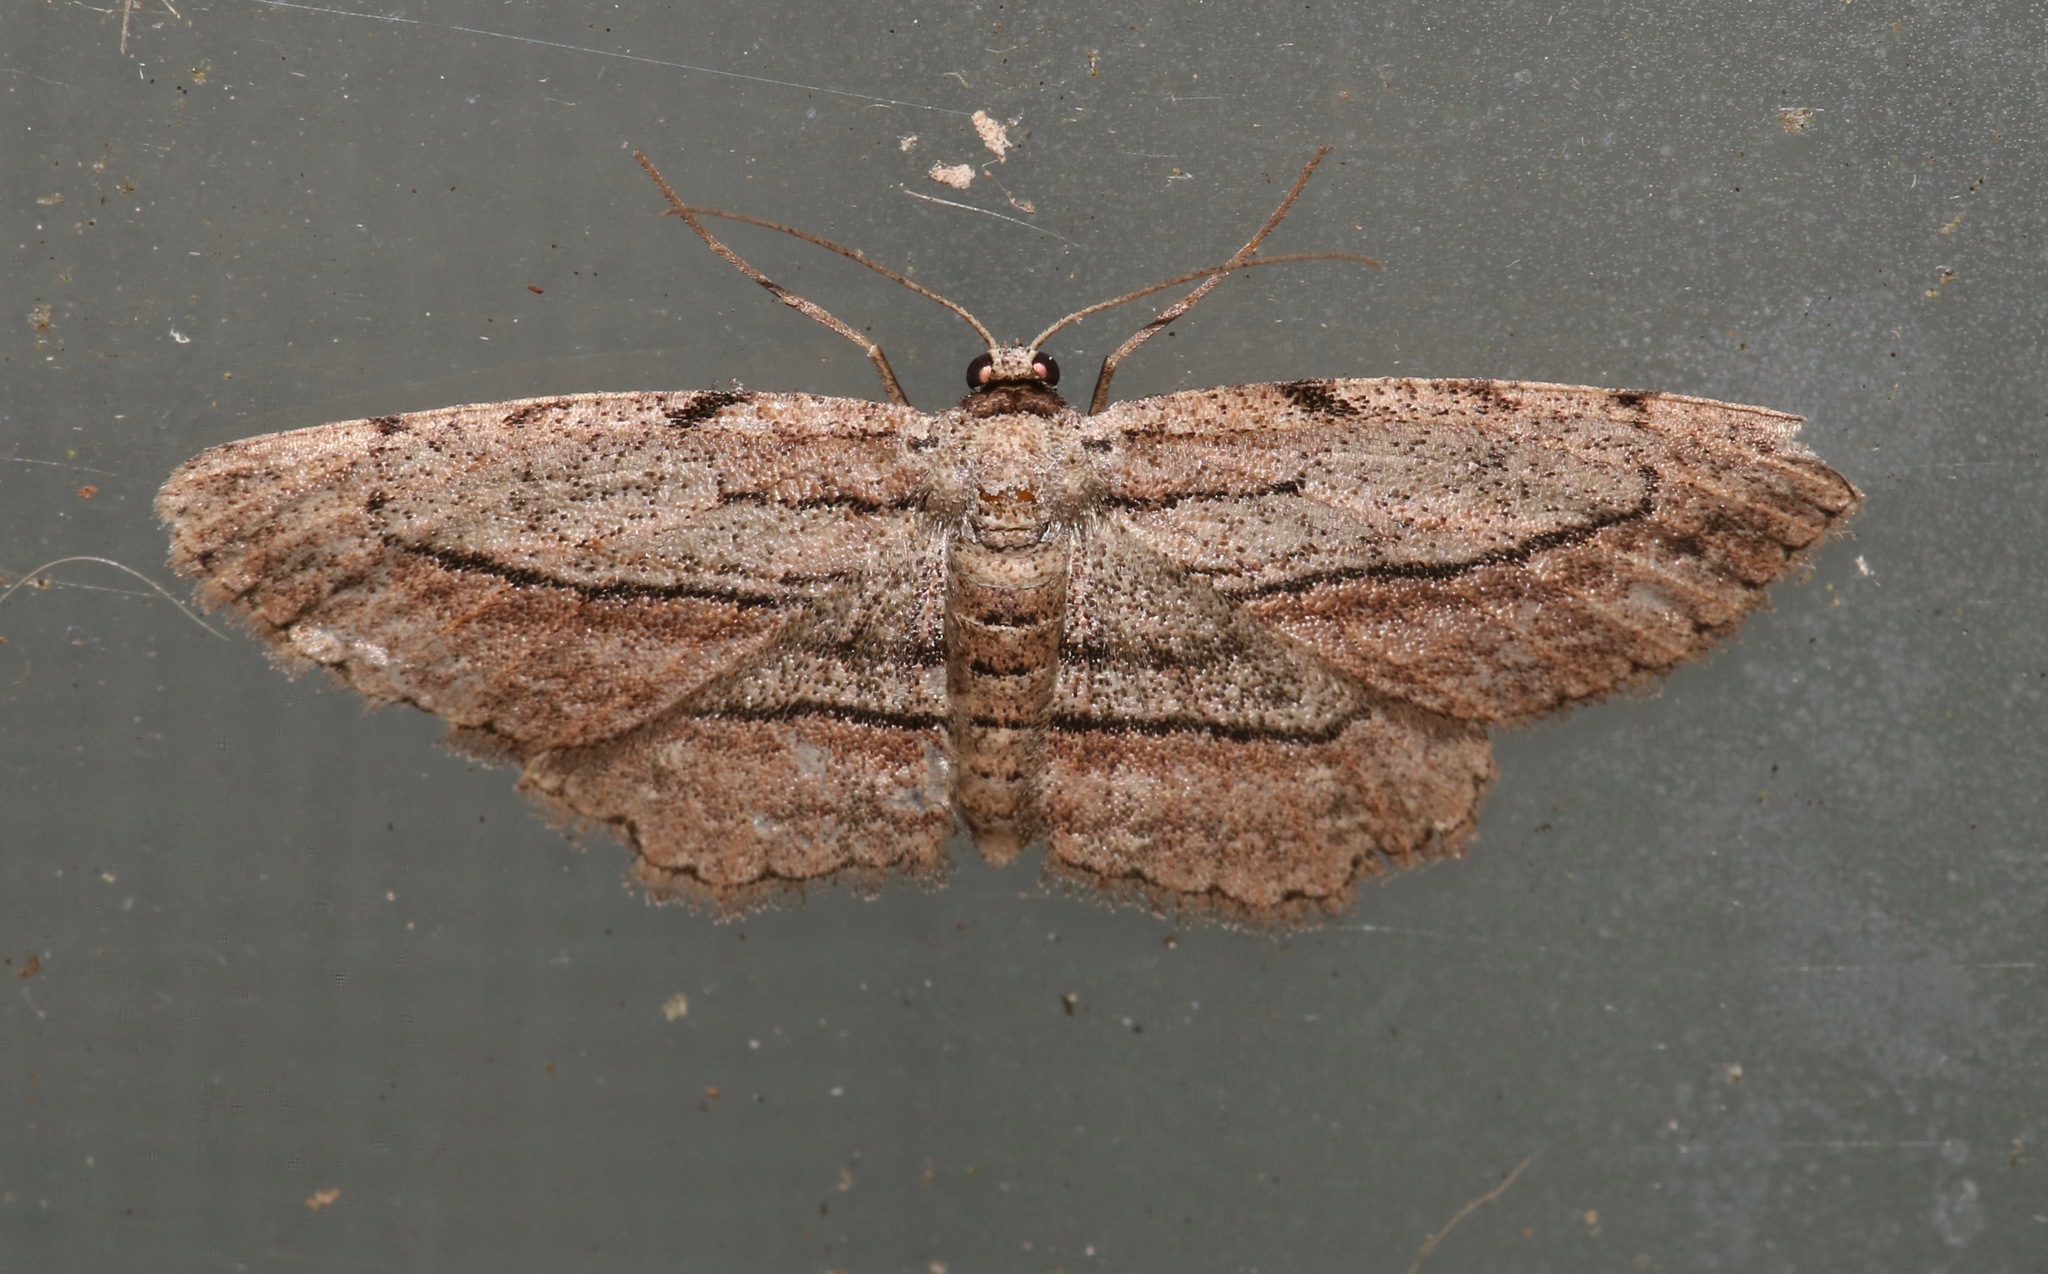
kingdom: Animalia
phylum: Arthropoda
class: Insecta
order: Lepidoptera
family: Geometridae
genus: Glena
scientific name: Glena plumosaria
